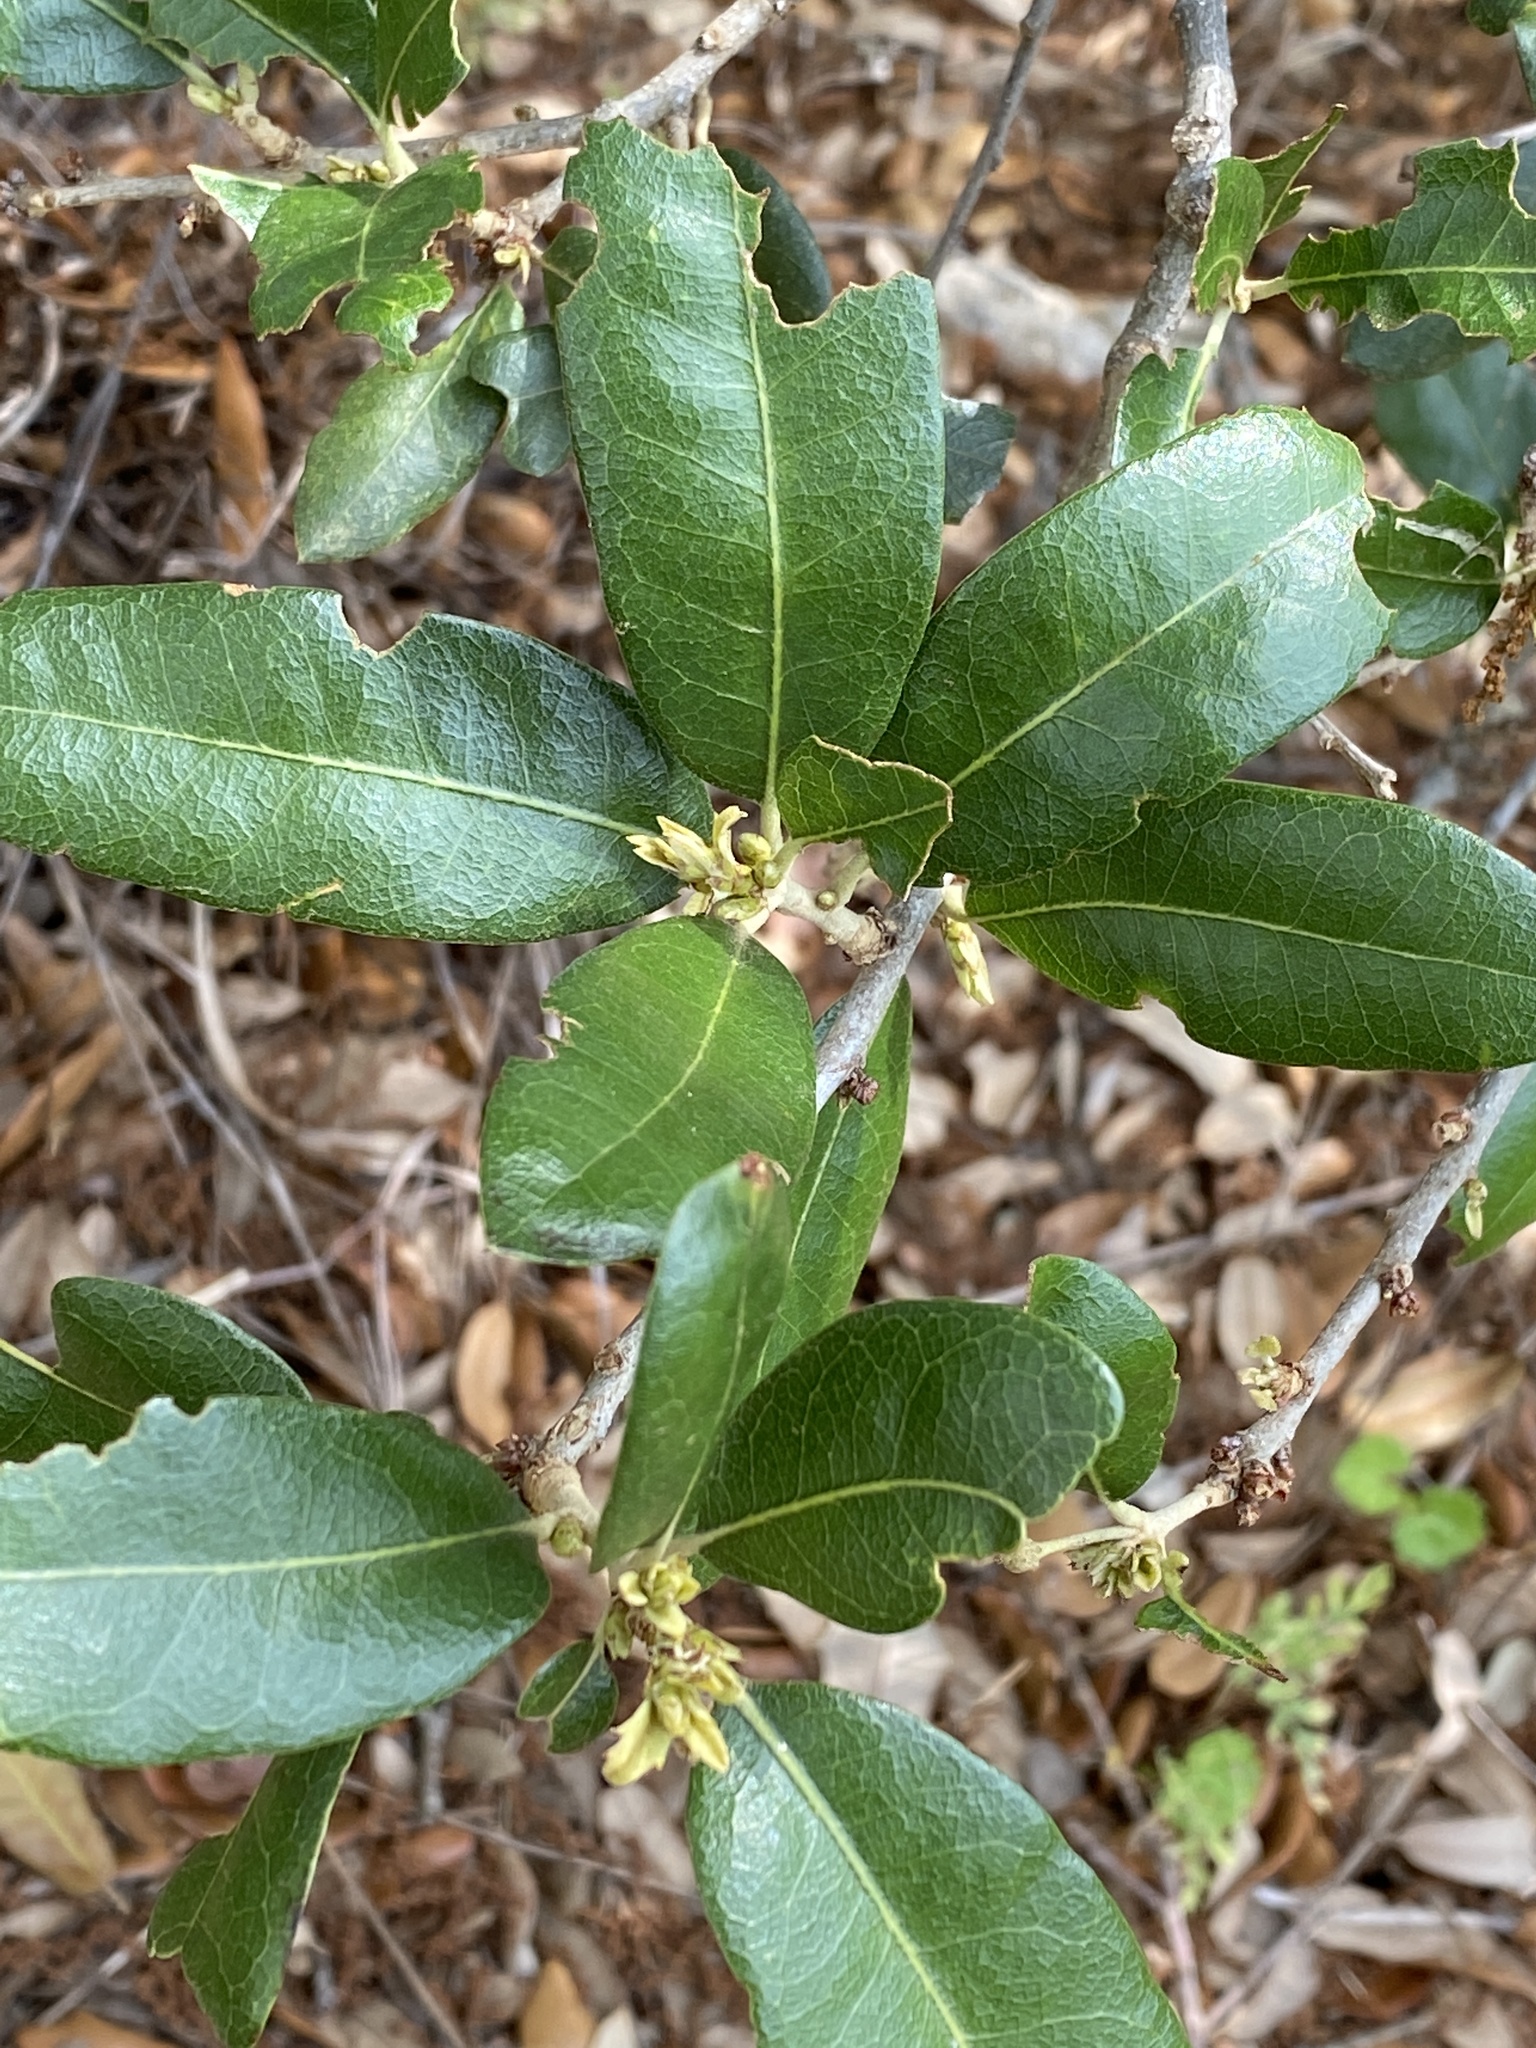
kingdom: Plantae
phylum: Tracheophyta
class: Magnoliopsida
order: Fagales
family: Fagaceae
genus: Quercus
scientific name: Quercus fusiformis
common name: Texas live oak
